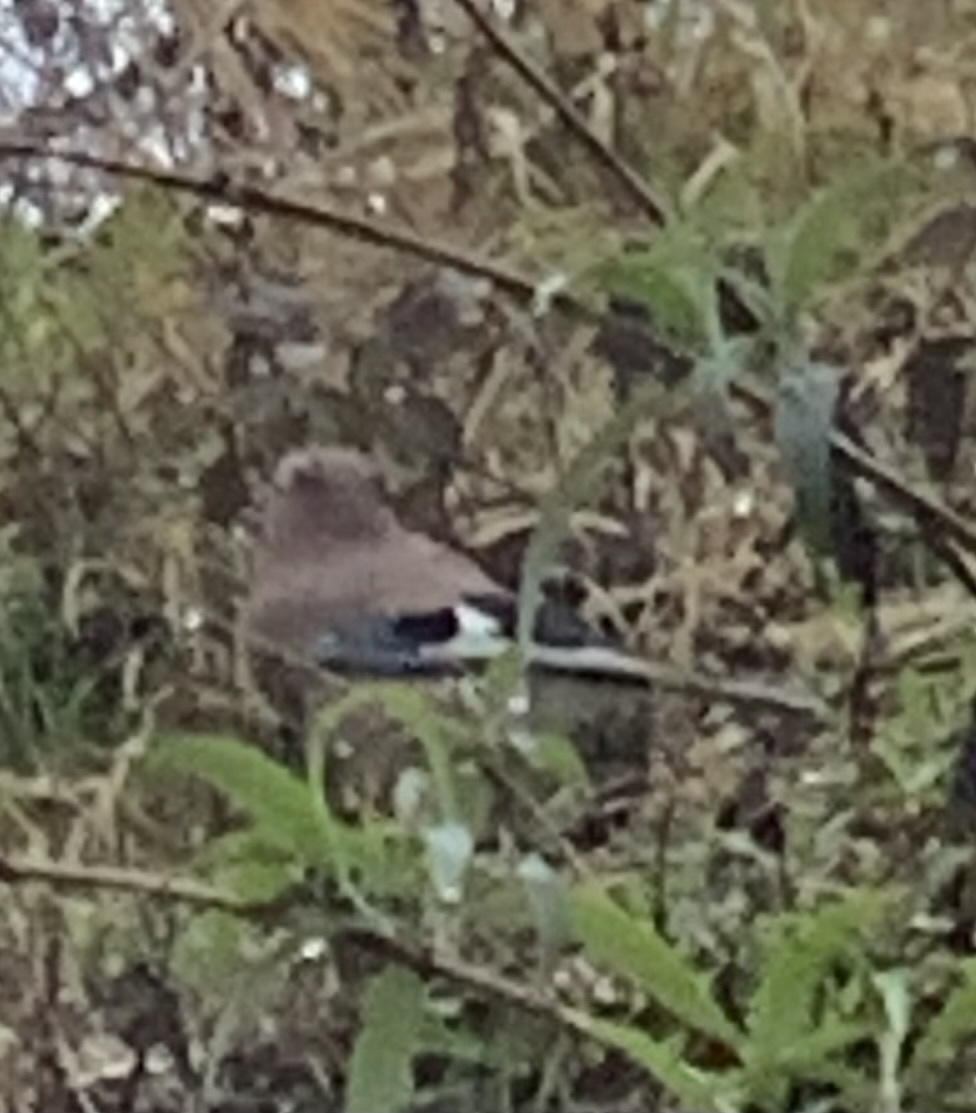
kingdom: Animalia
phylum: Chordata
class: Aves
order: Passeriformes
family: Corvidae
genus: Garrulus
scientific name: Garrulus glandarius
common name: Eurasian jay
